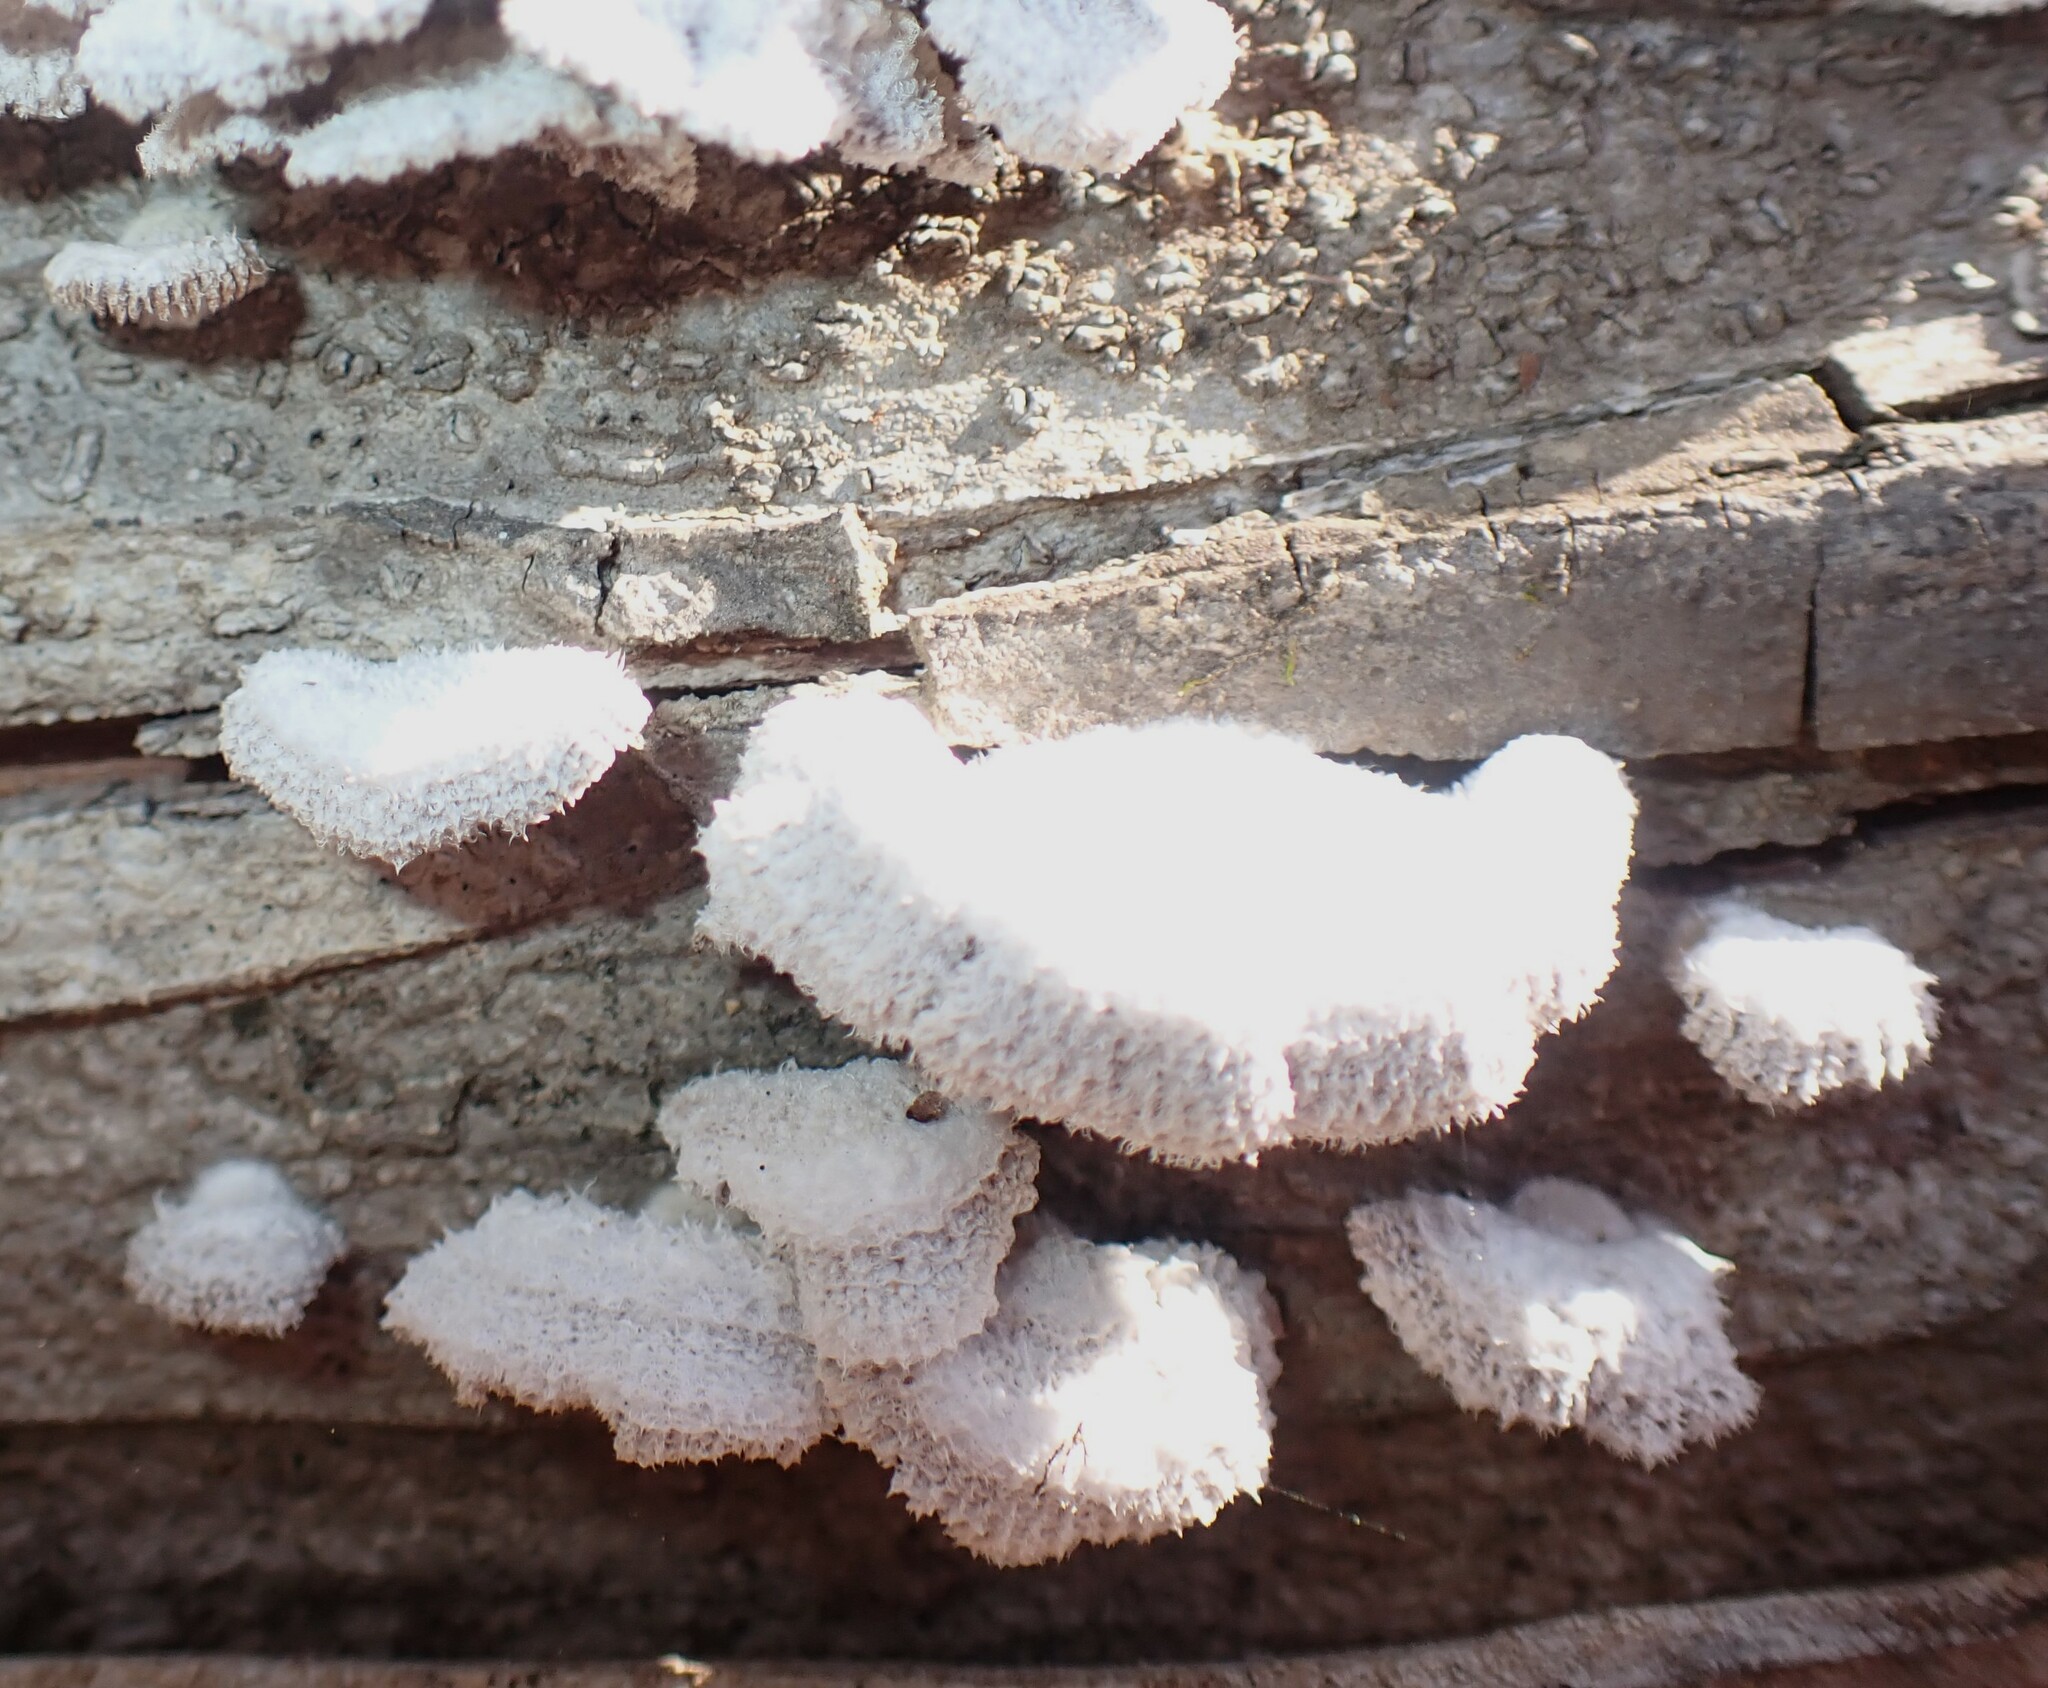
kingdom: Fungi
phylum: Basidiomycota
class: Agaricomycetes
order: Agaricales
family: Schizophyllaceae
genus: Schizophyllum
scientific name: Schizophyllum commune
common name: Common porecrust
